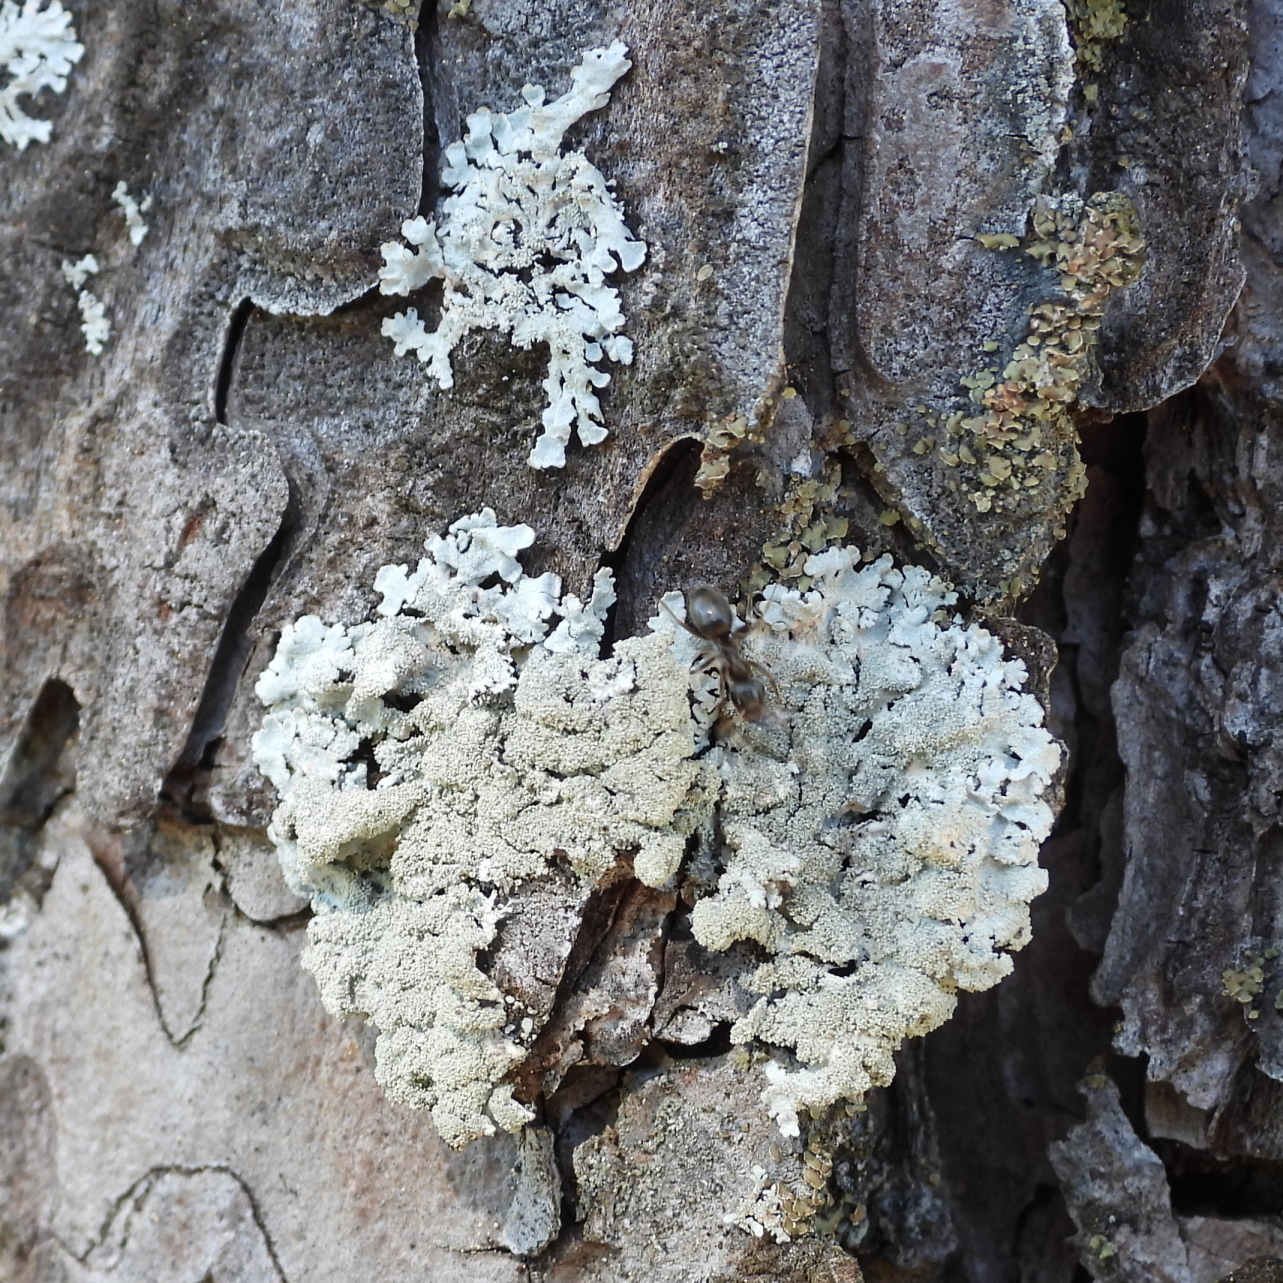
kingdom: Fungi
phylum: Ascomycota
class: Lecanoromycetes
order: Lecanorales
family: Parmeliaceae
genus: Imshaugia
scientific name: Imshaugia aleurites
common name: Salted starburst lichen
